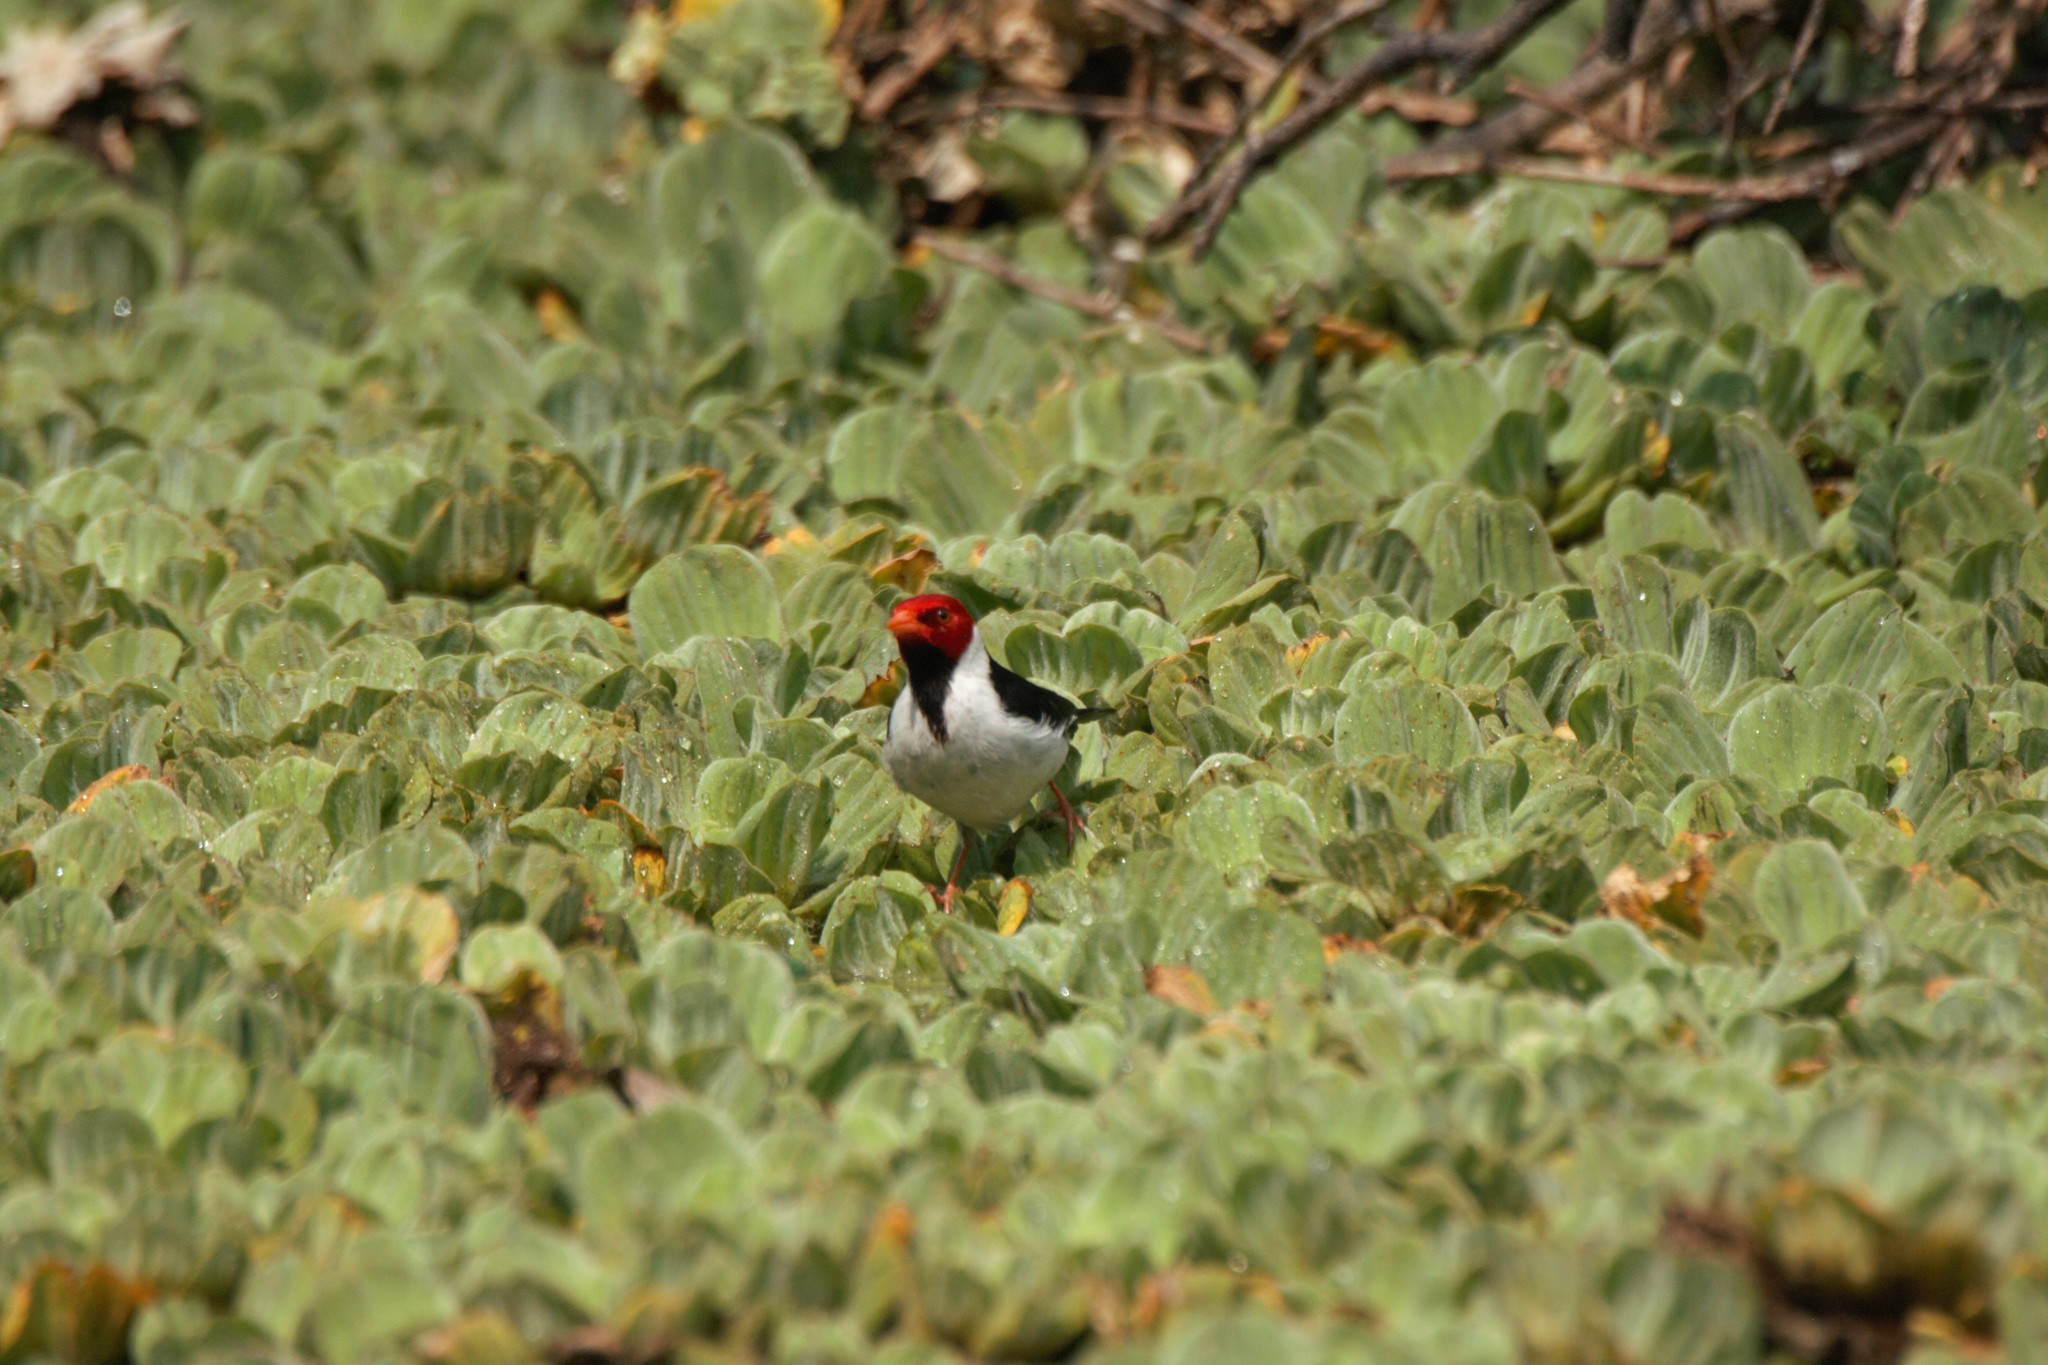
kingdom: Animalia
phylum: Chordata
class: Aves
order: Passeriformes
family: Thraupidae
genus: Paroaria
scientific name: Paroaria capitata
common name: Yellow-billed cardinal
